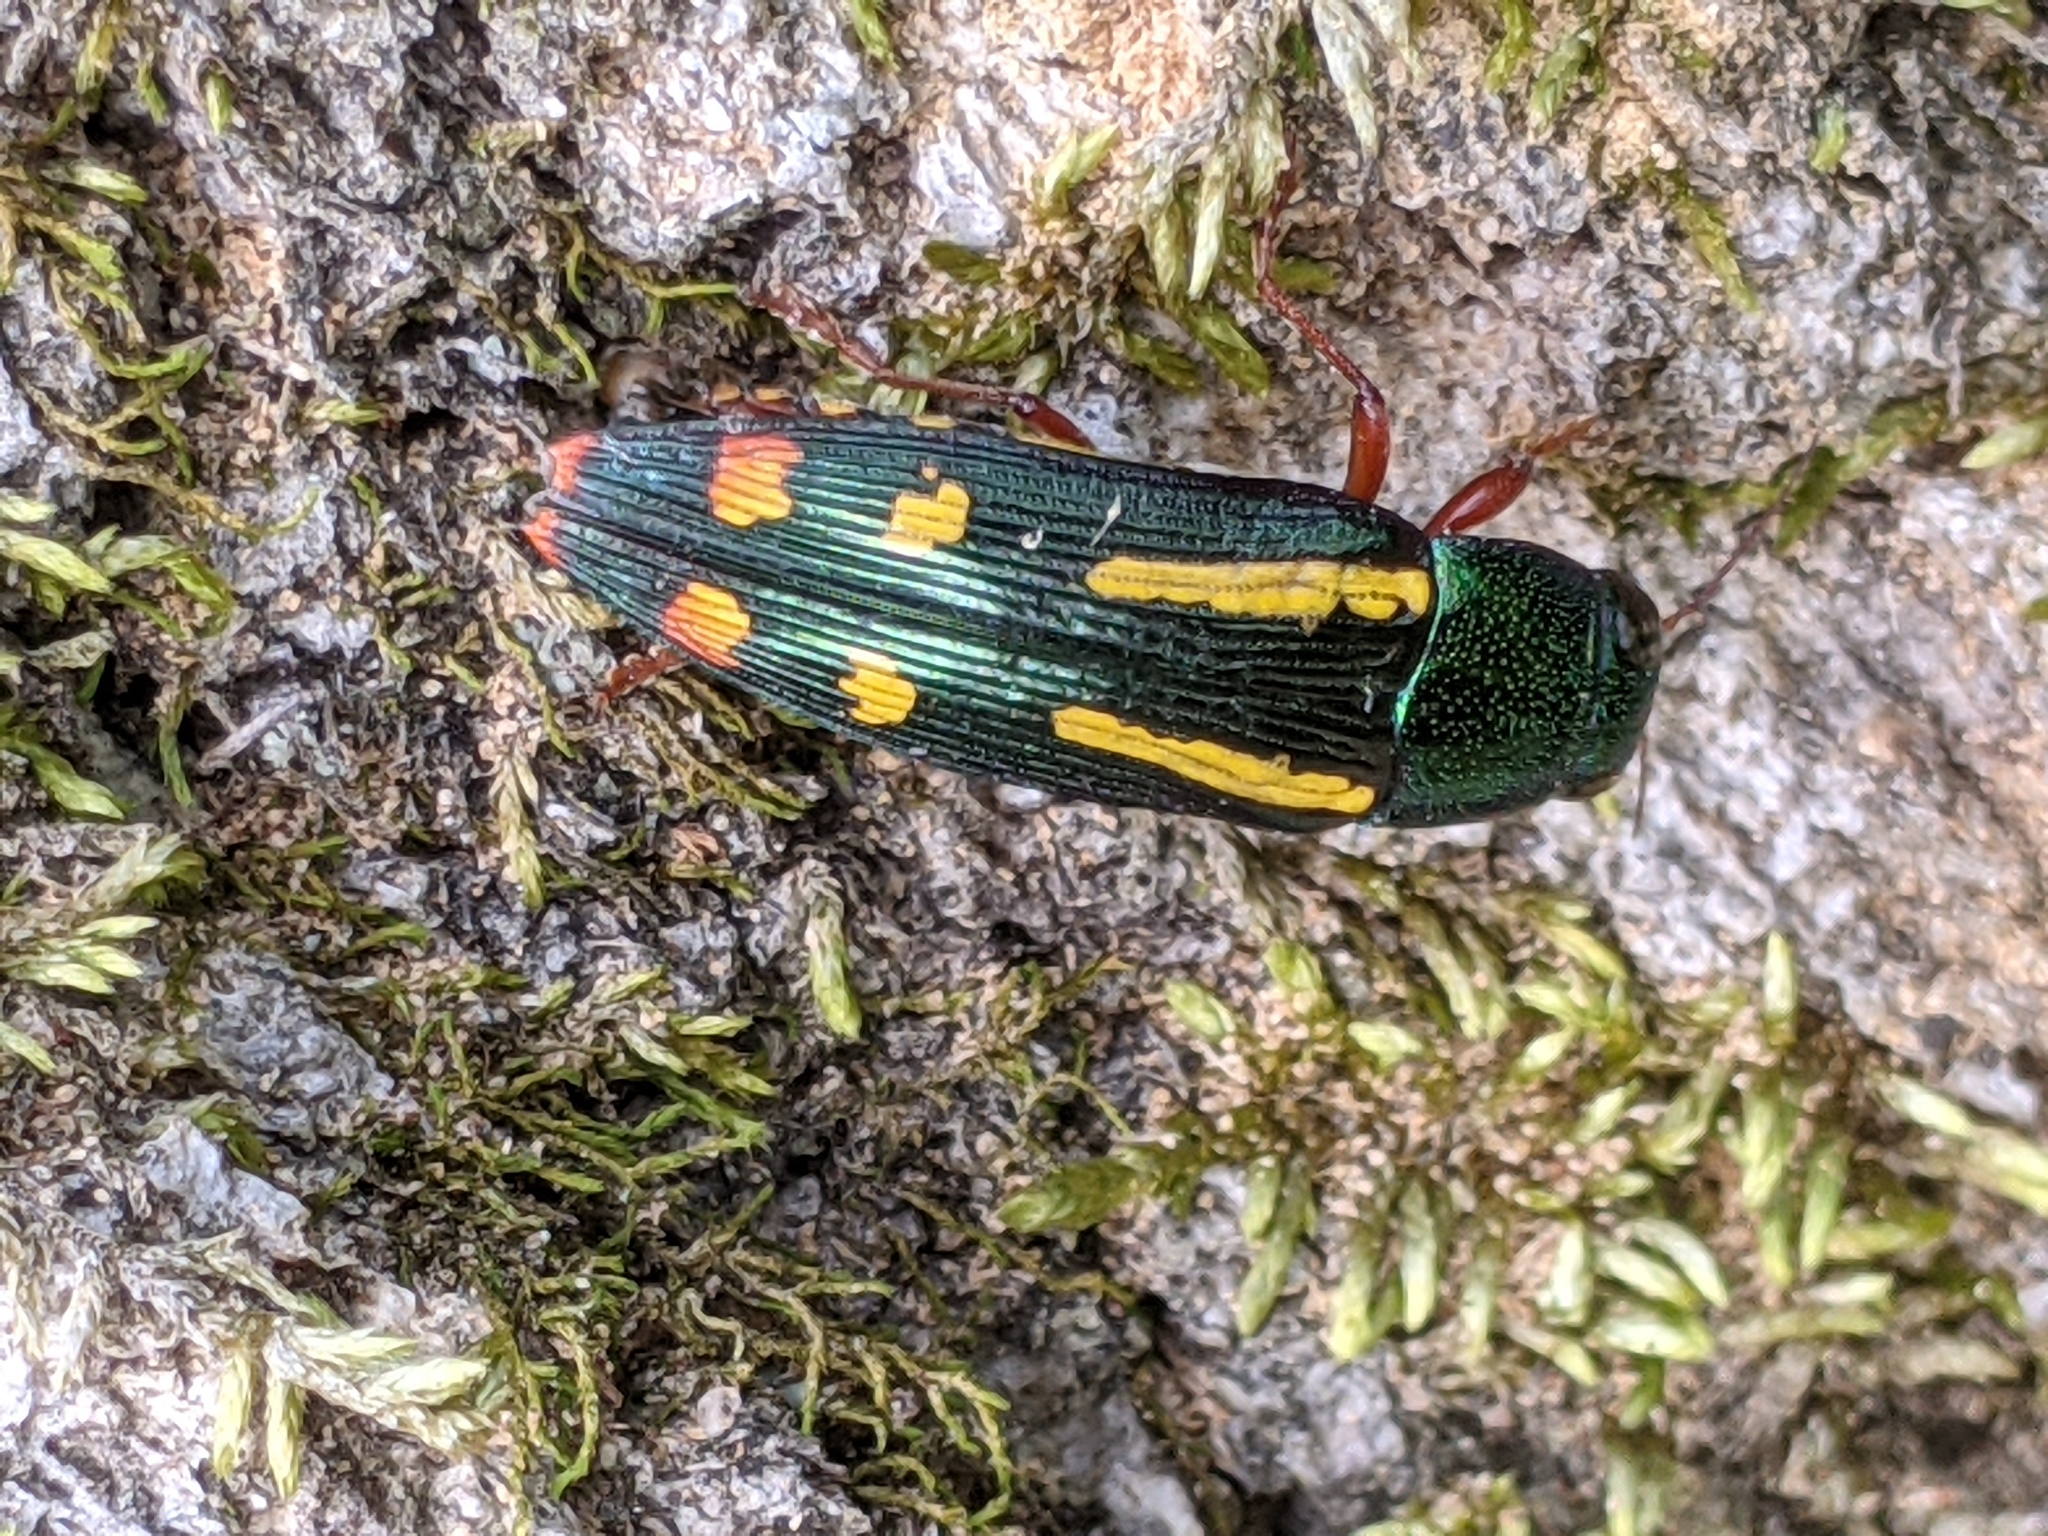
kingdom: Animalia
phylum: Arthropoda
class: Insecta
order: Coleoptera
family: Buprestidae
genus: Buprestis
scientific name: Buprestis rufipes
